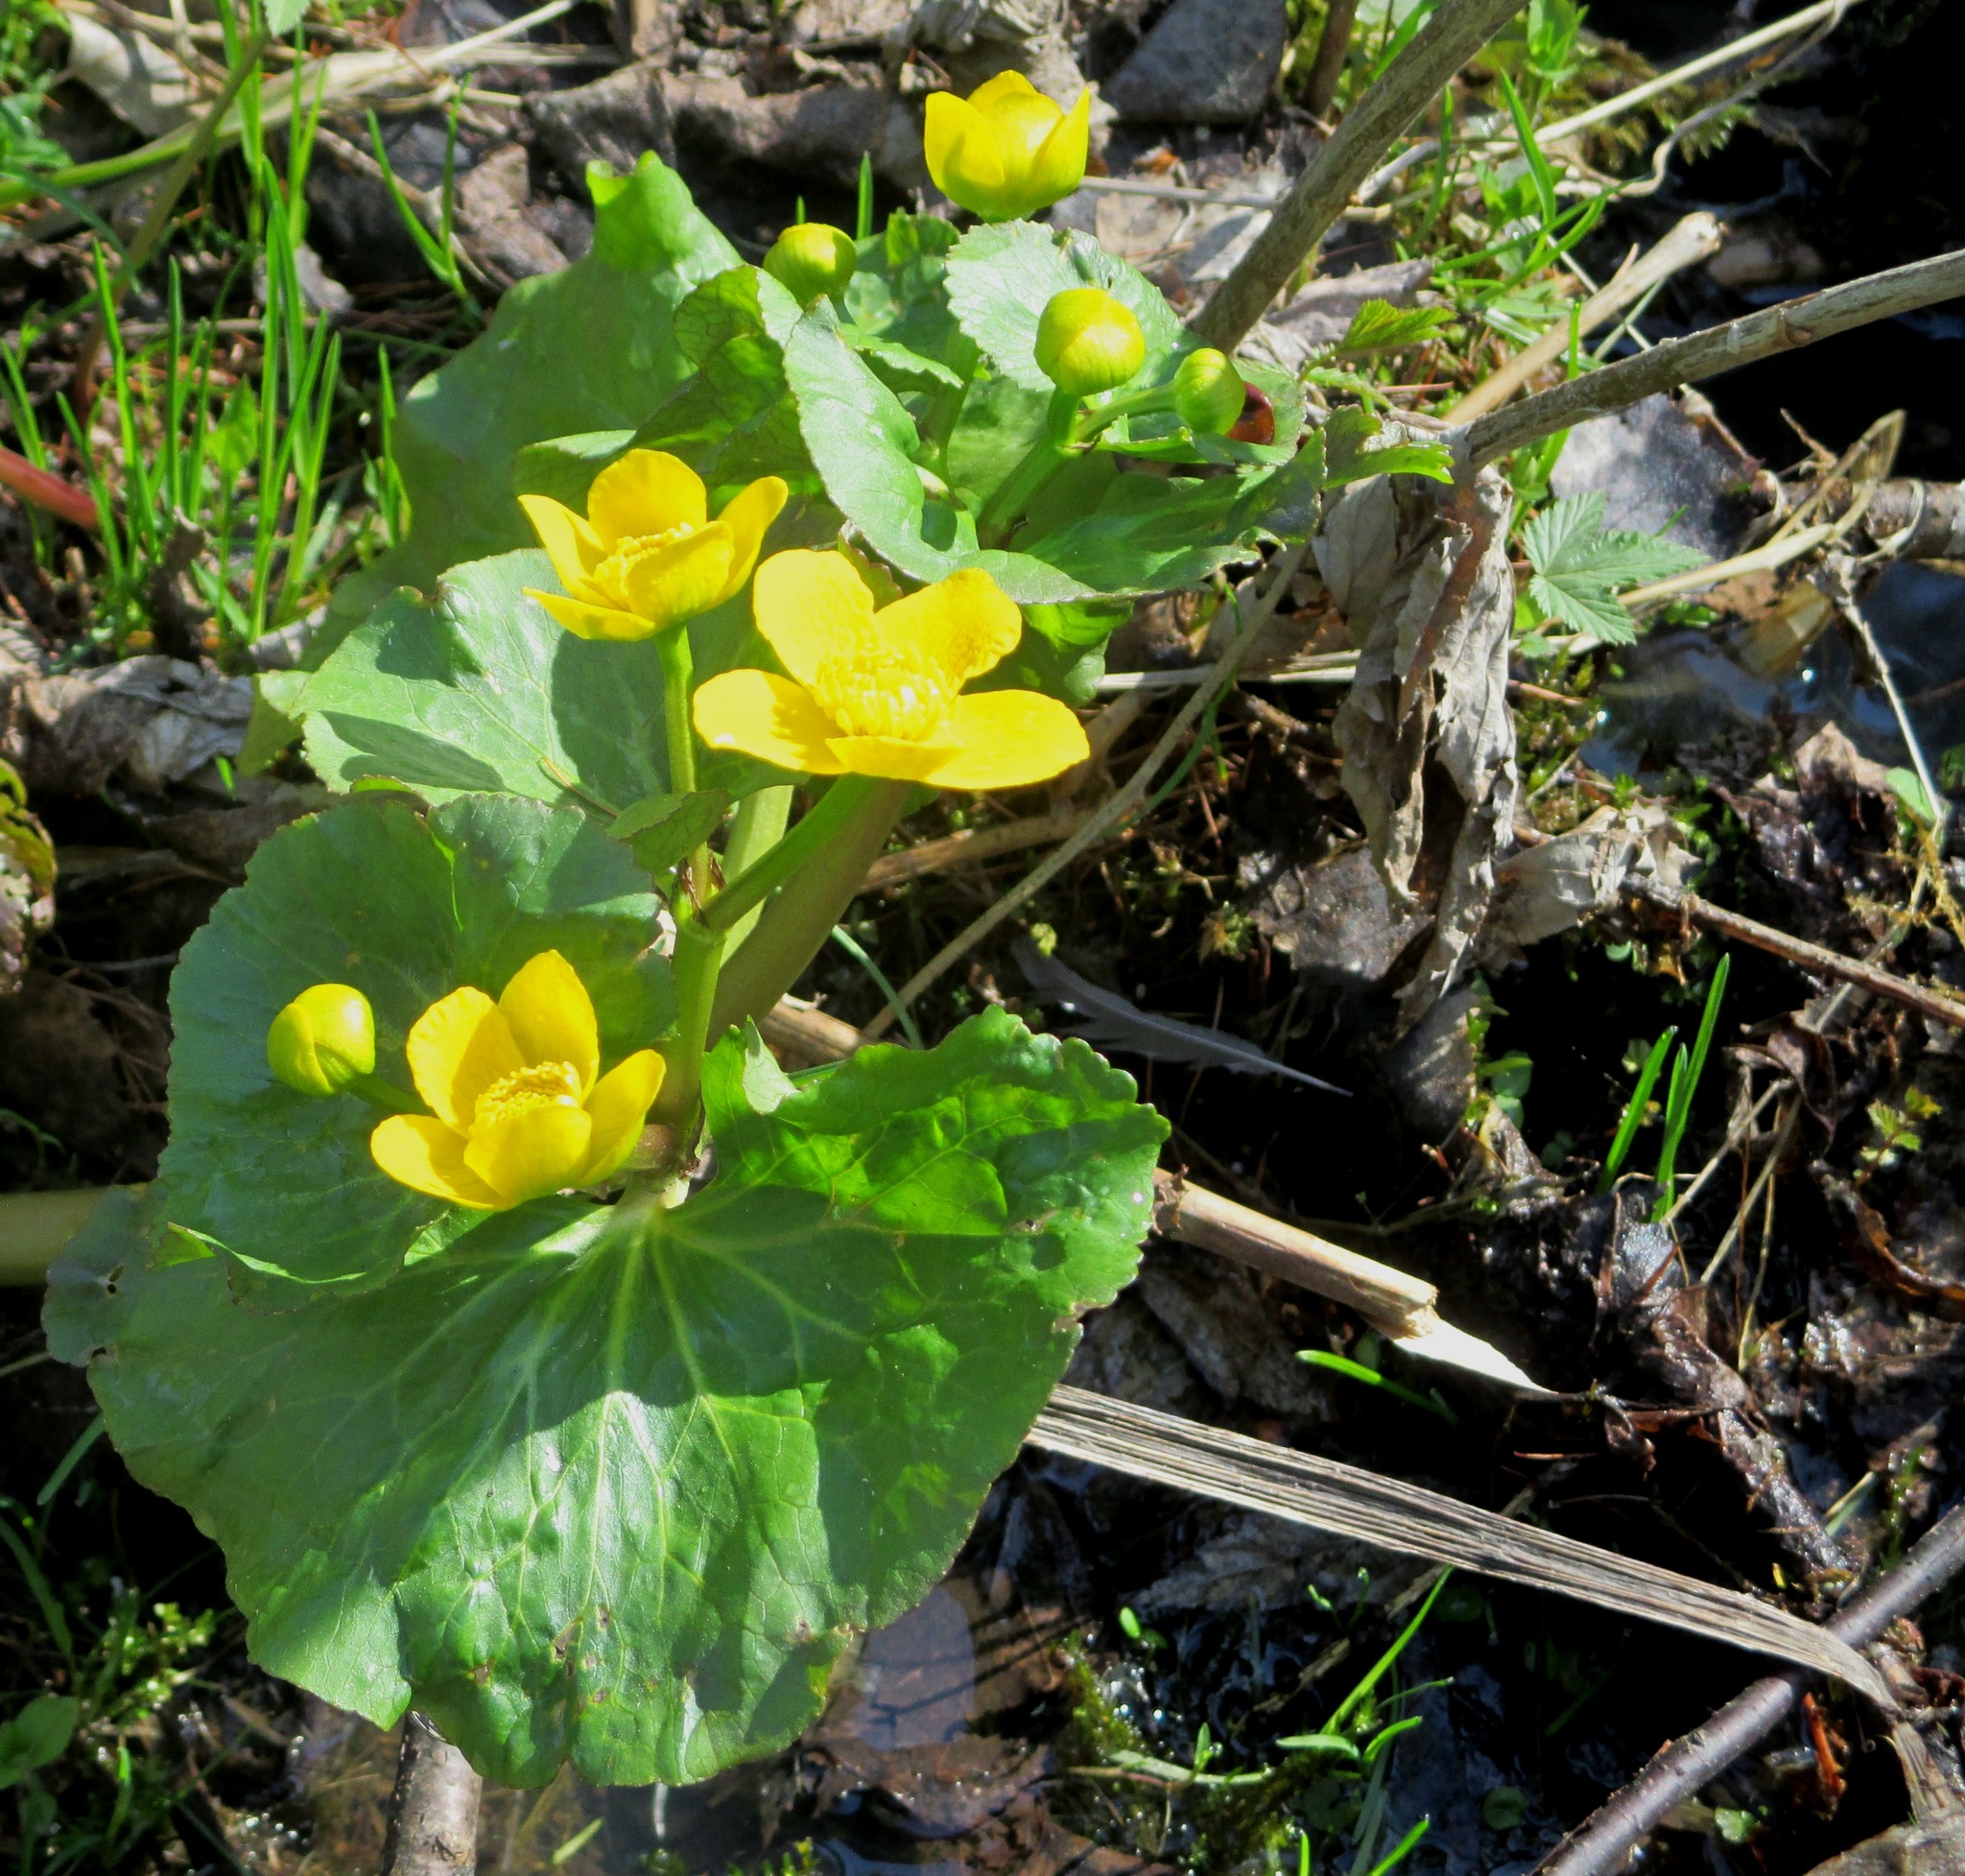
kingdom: Plantae
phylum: Tracheophyta
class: Magnoliopsida
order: Ranunculales
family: Ranunculaceae
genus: Caltha
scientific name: Caltha palustris
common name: Marsh marigold
